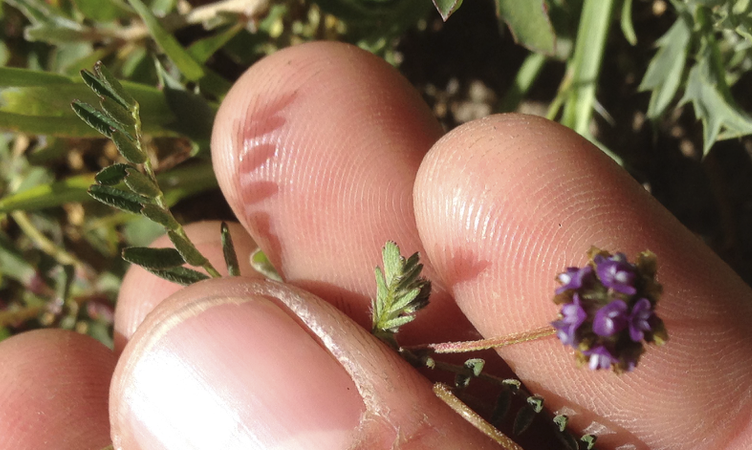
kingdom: Plantae
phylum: Tracheophyta
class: Magnoliopsida
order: Fabales
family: Fabaceae
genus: Astragalus
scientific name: Astragalus didymocarpus
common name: Dwarf white milkvetch
